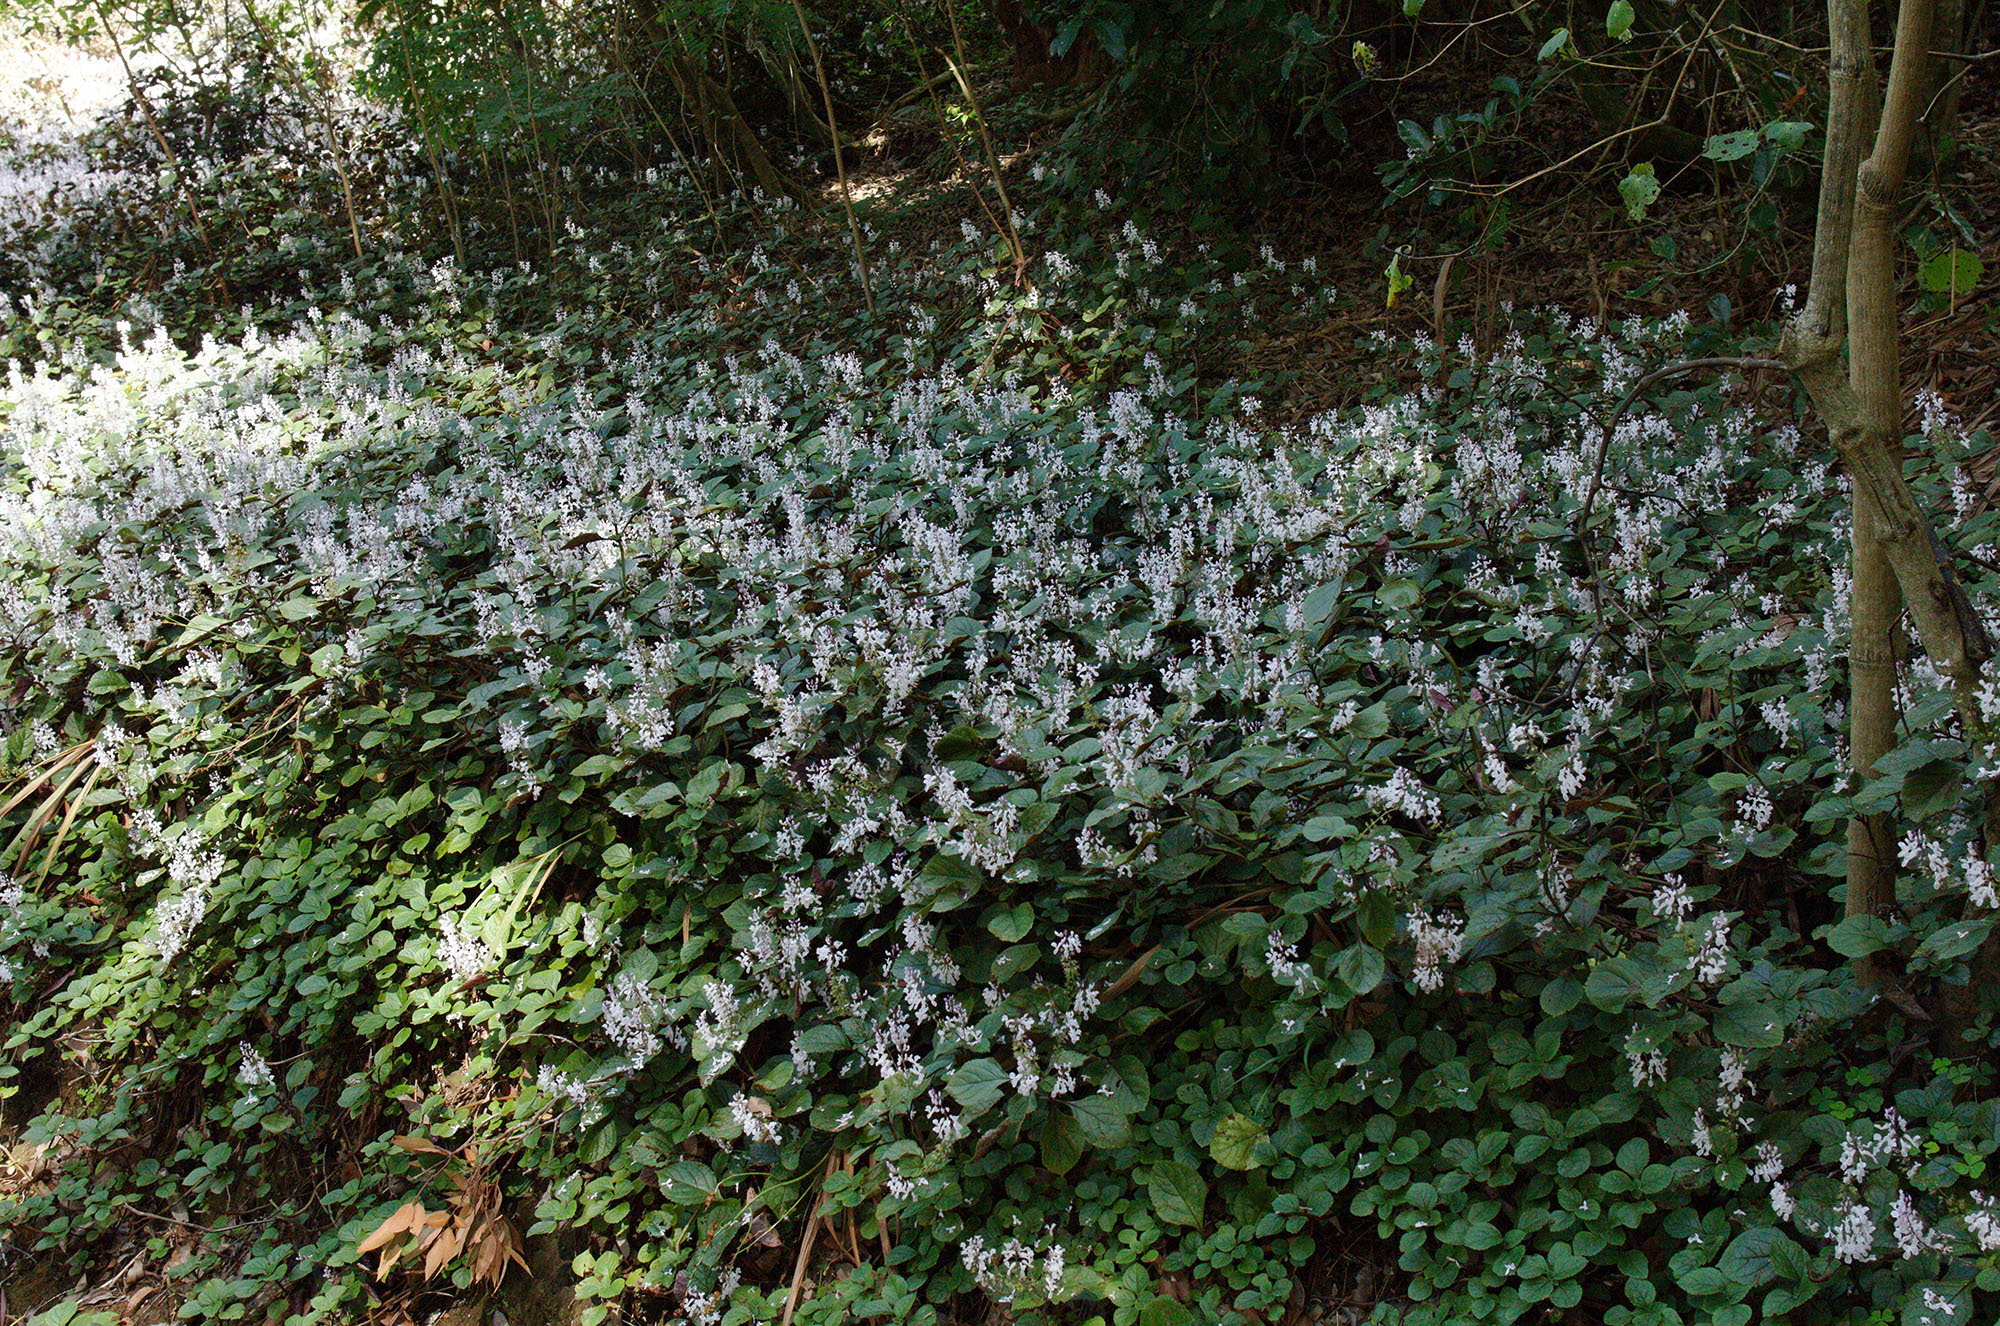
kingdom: Plantae
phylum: Tracheophyta
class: Magnoliopsida
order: Lamiales
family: Lamiaceae
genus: Plectranthus
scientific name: Plectranthus ciliatus
